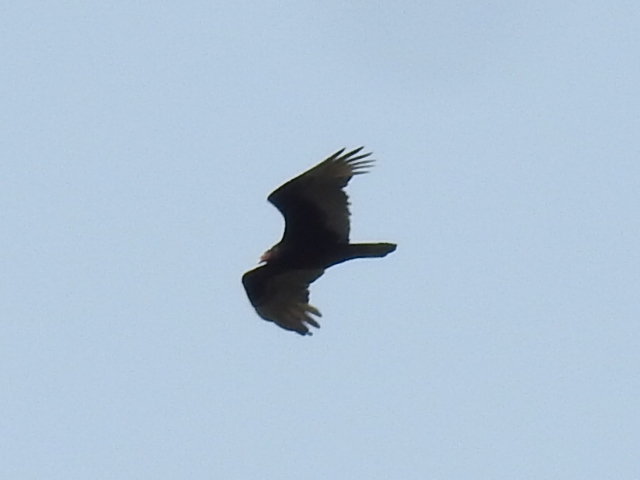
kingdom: Animalia
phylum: Chordata
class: Aves
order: Accipitriformes
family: Cathartidae
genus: Cathartes
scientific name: Cathartes aura
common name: Turkey vulture
